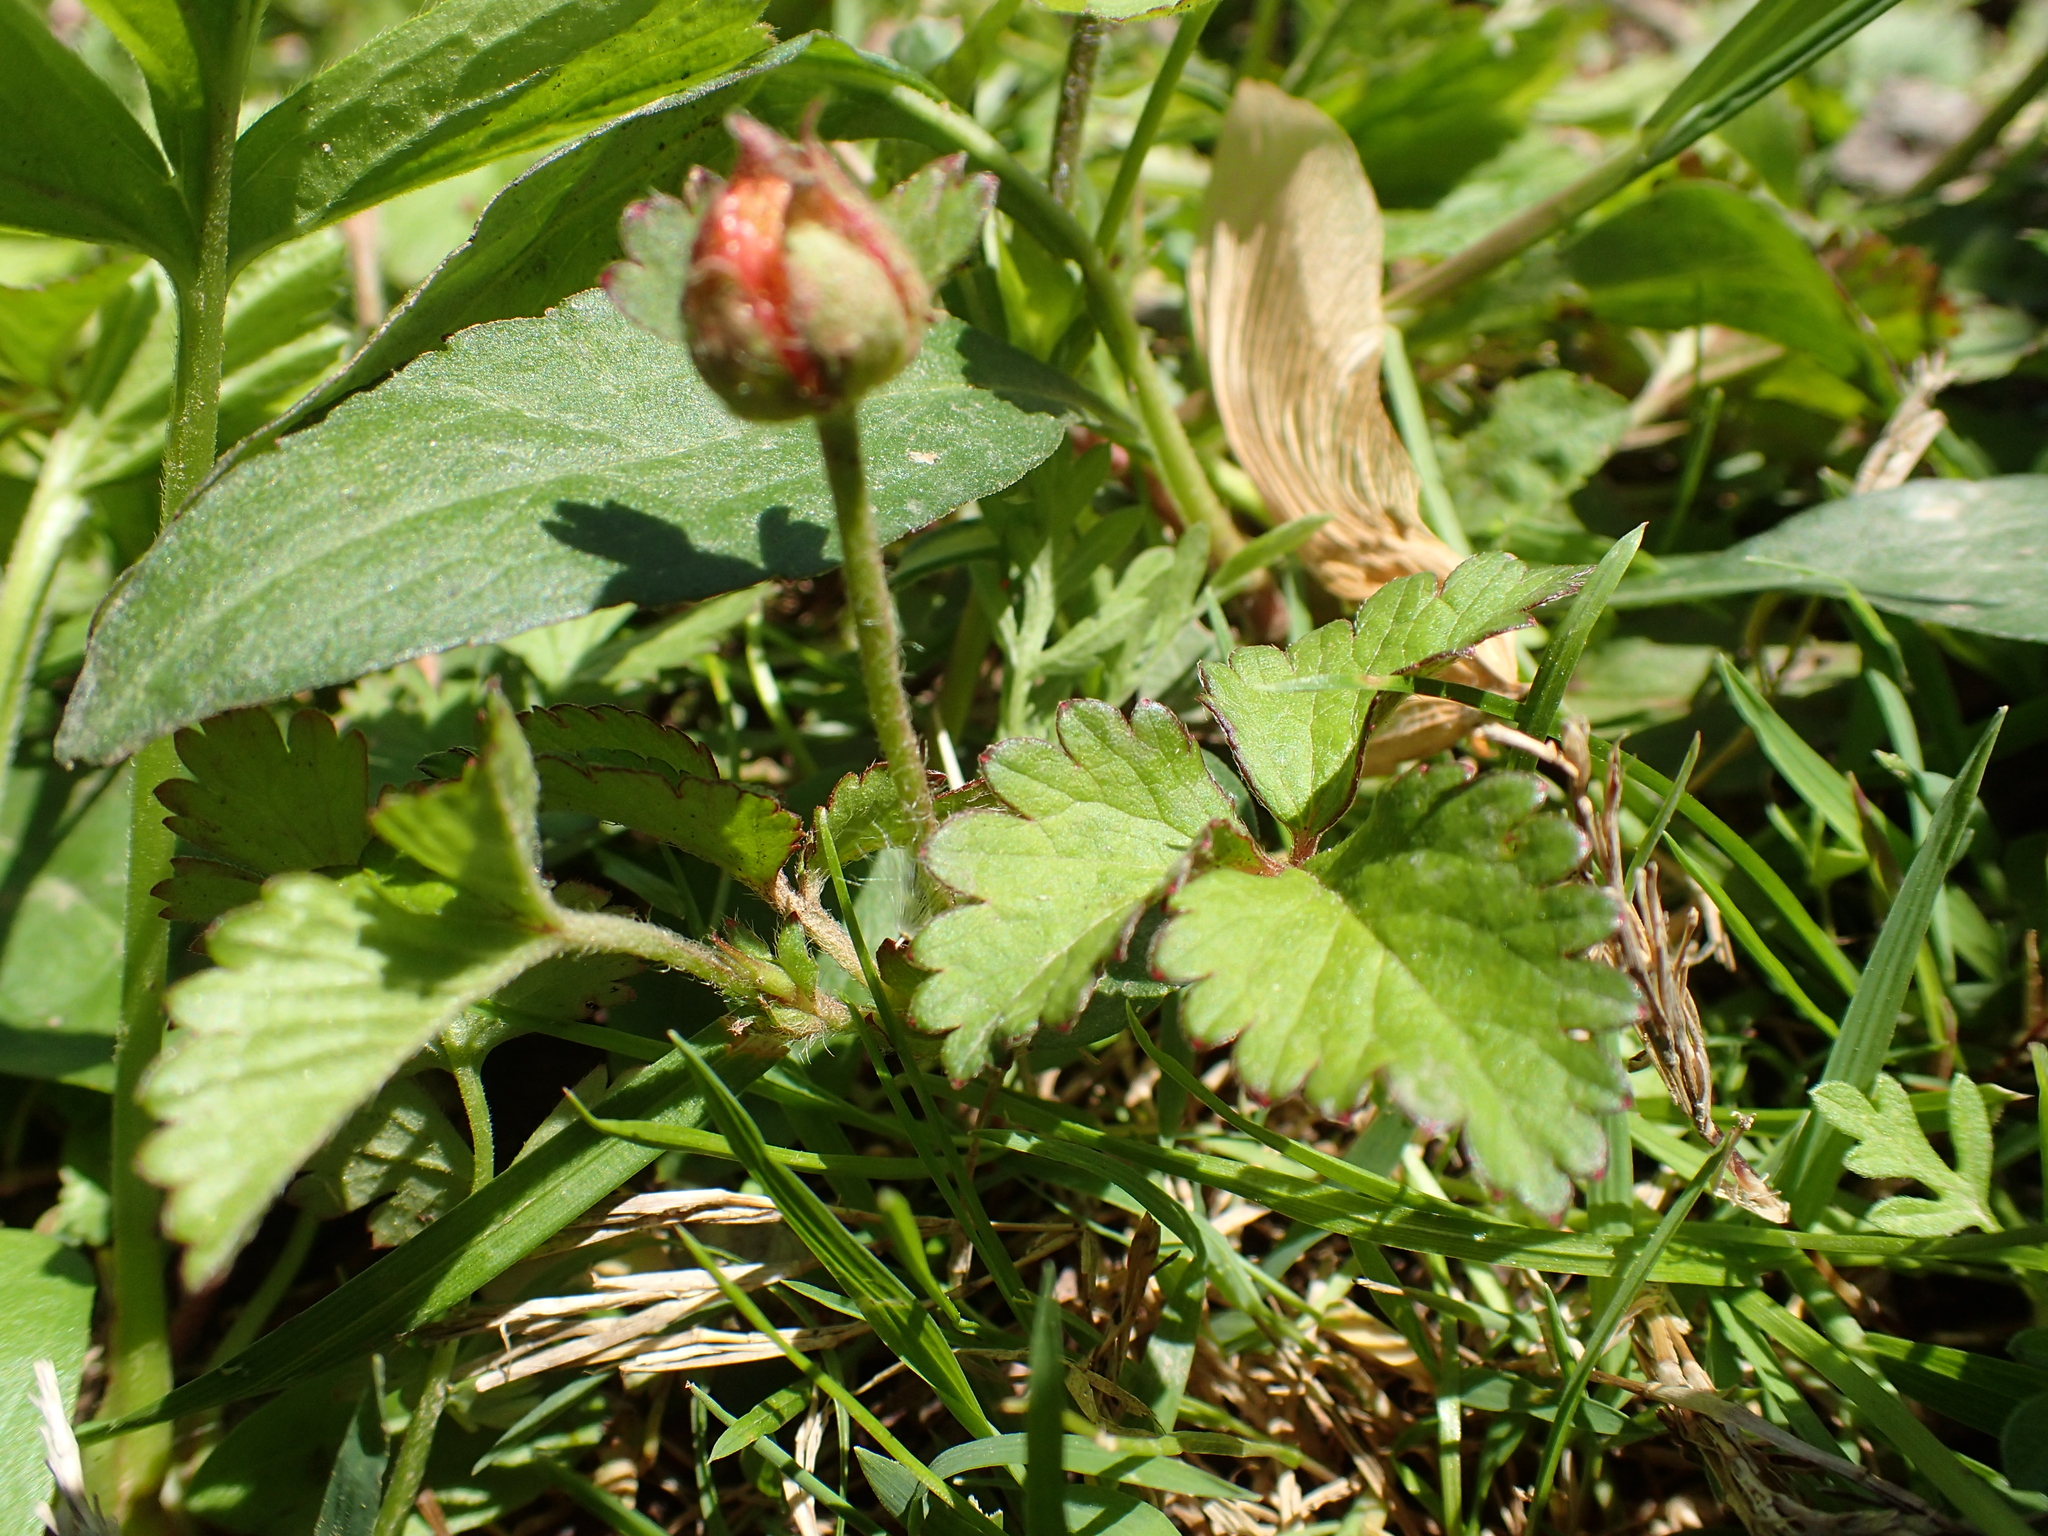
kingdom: Plantae
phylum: Tracheophyta
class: Magnoliopsida
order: Rosales
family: Rosaceae
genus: Potentilla
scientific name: Potentilla indica
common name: Yellow-flowered strawberry
